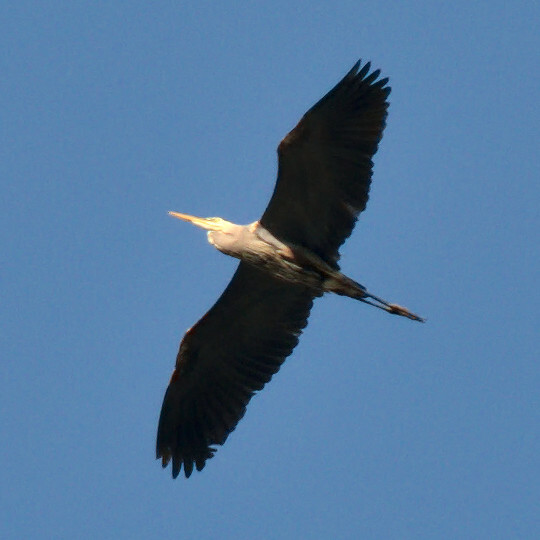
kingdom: Animalia
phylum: Chordata
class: Aves
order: Pelecaniformes
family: Ardeidae
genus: Ardea
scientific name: Ardea herodias
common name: Great blue heron
